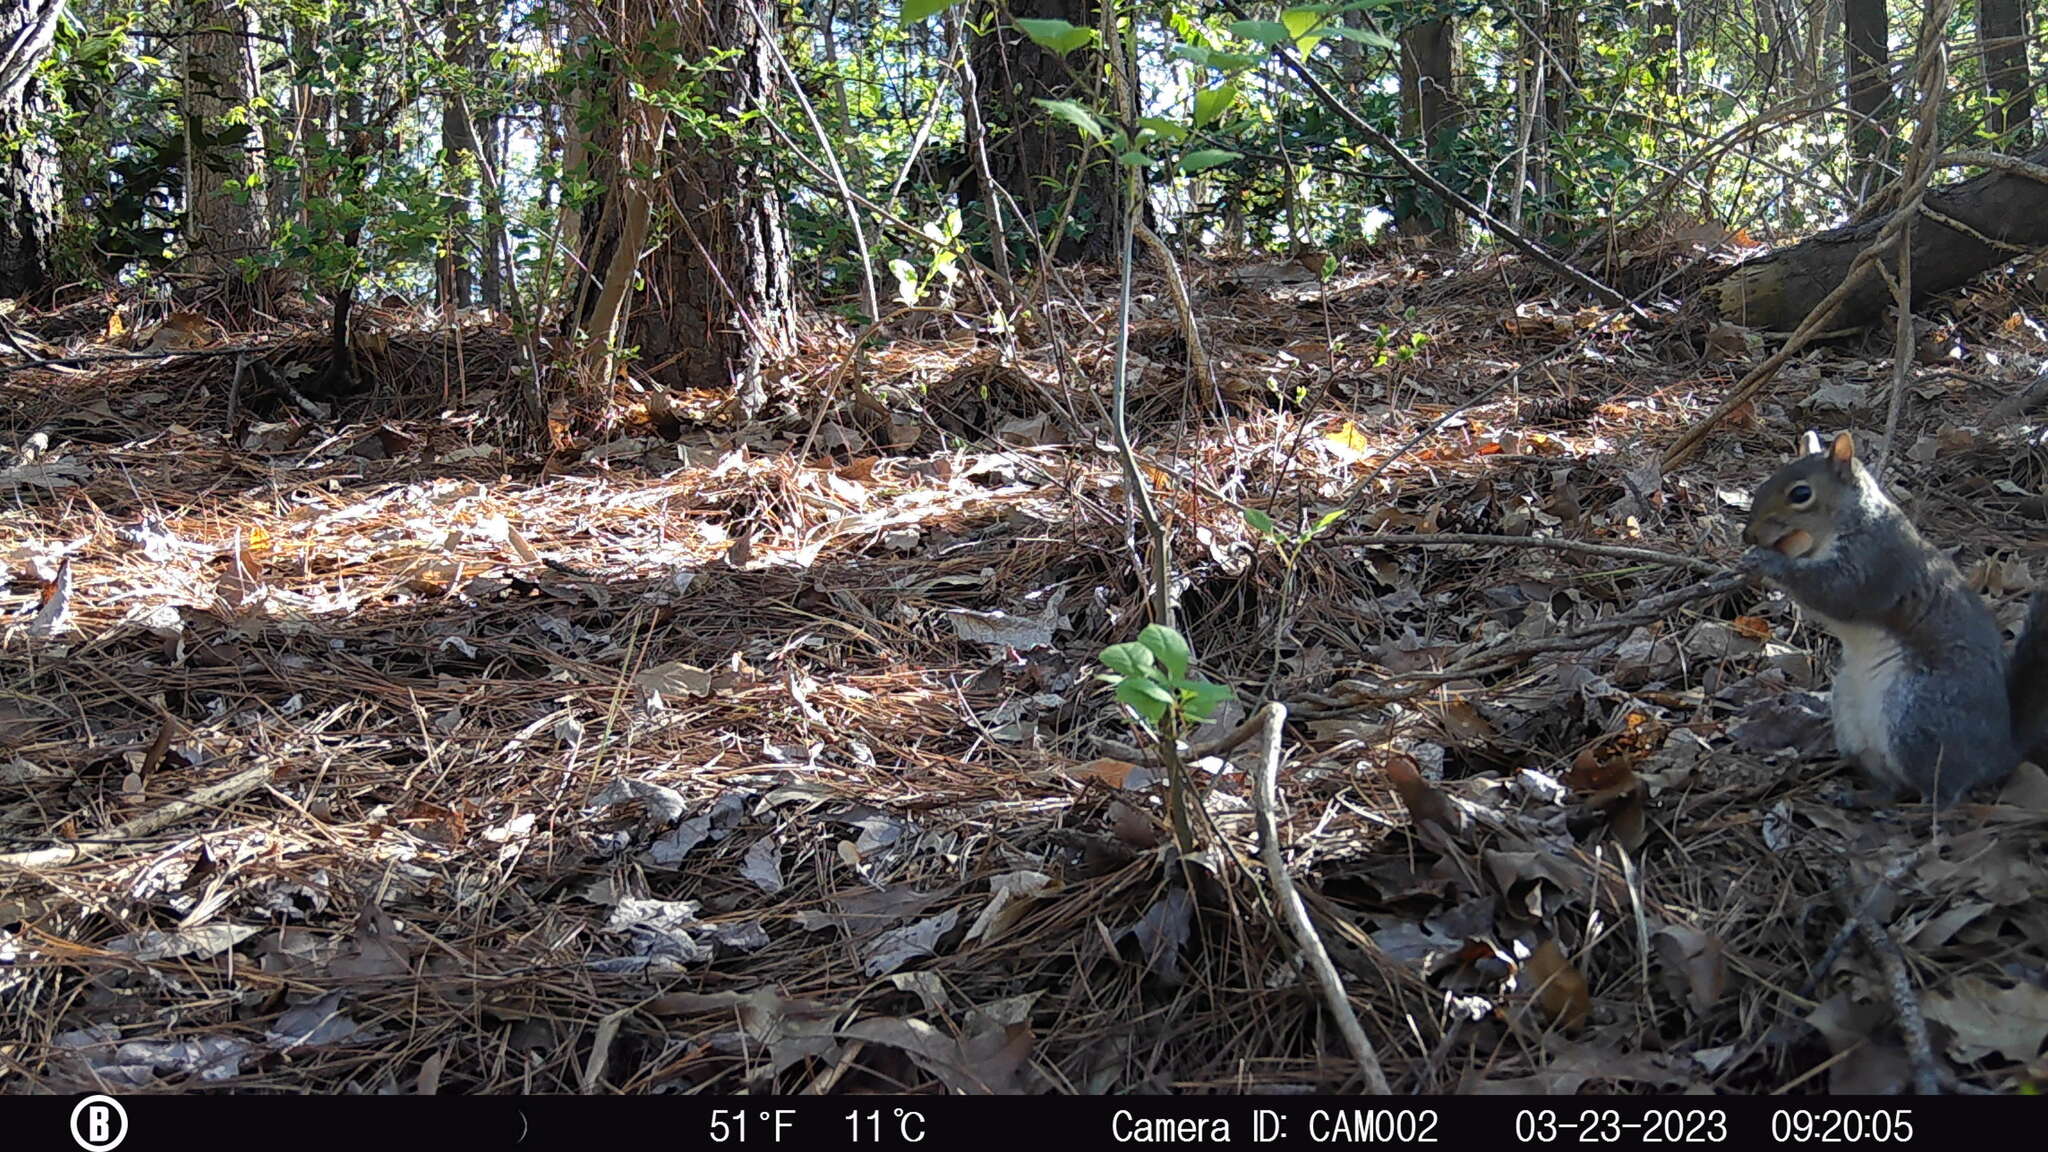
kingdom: Animalia
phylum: Chordata
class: Mammalia
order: Rodentia
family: Sciuridae
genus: Sciurus
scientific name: Sciurus carolinensis
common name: Eastern gray squirrel
